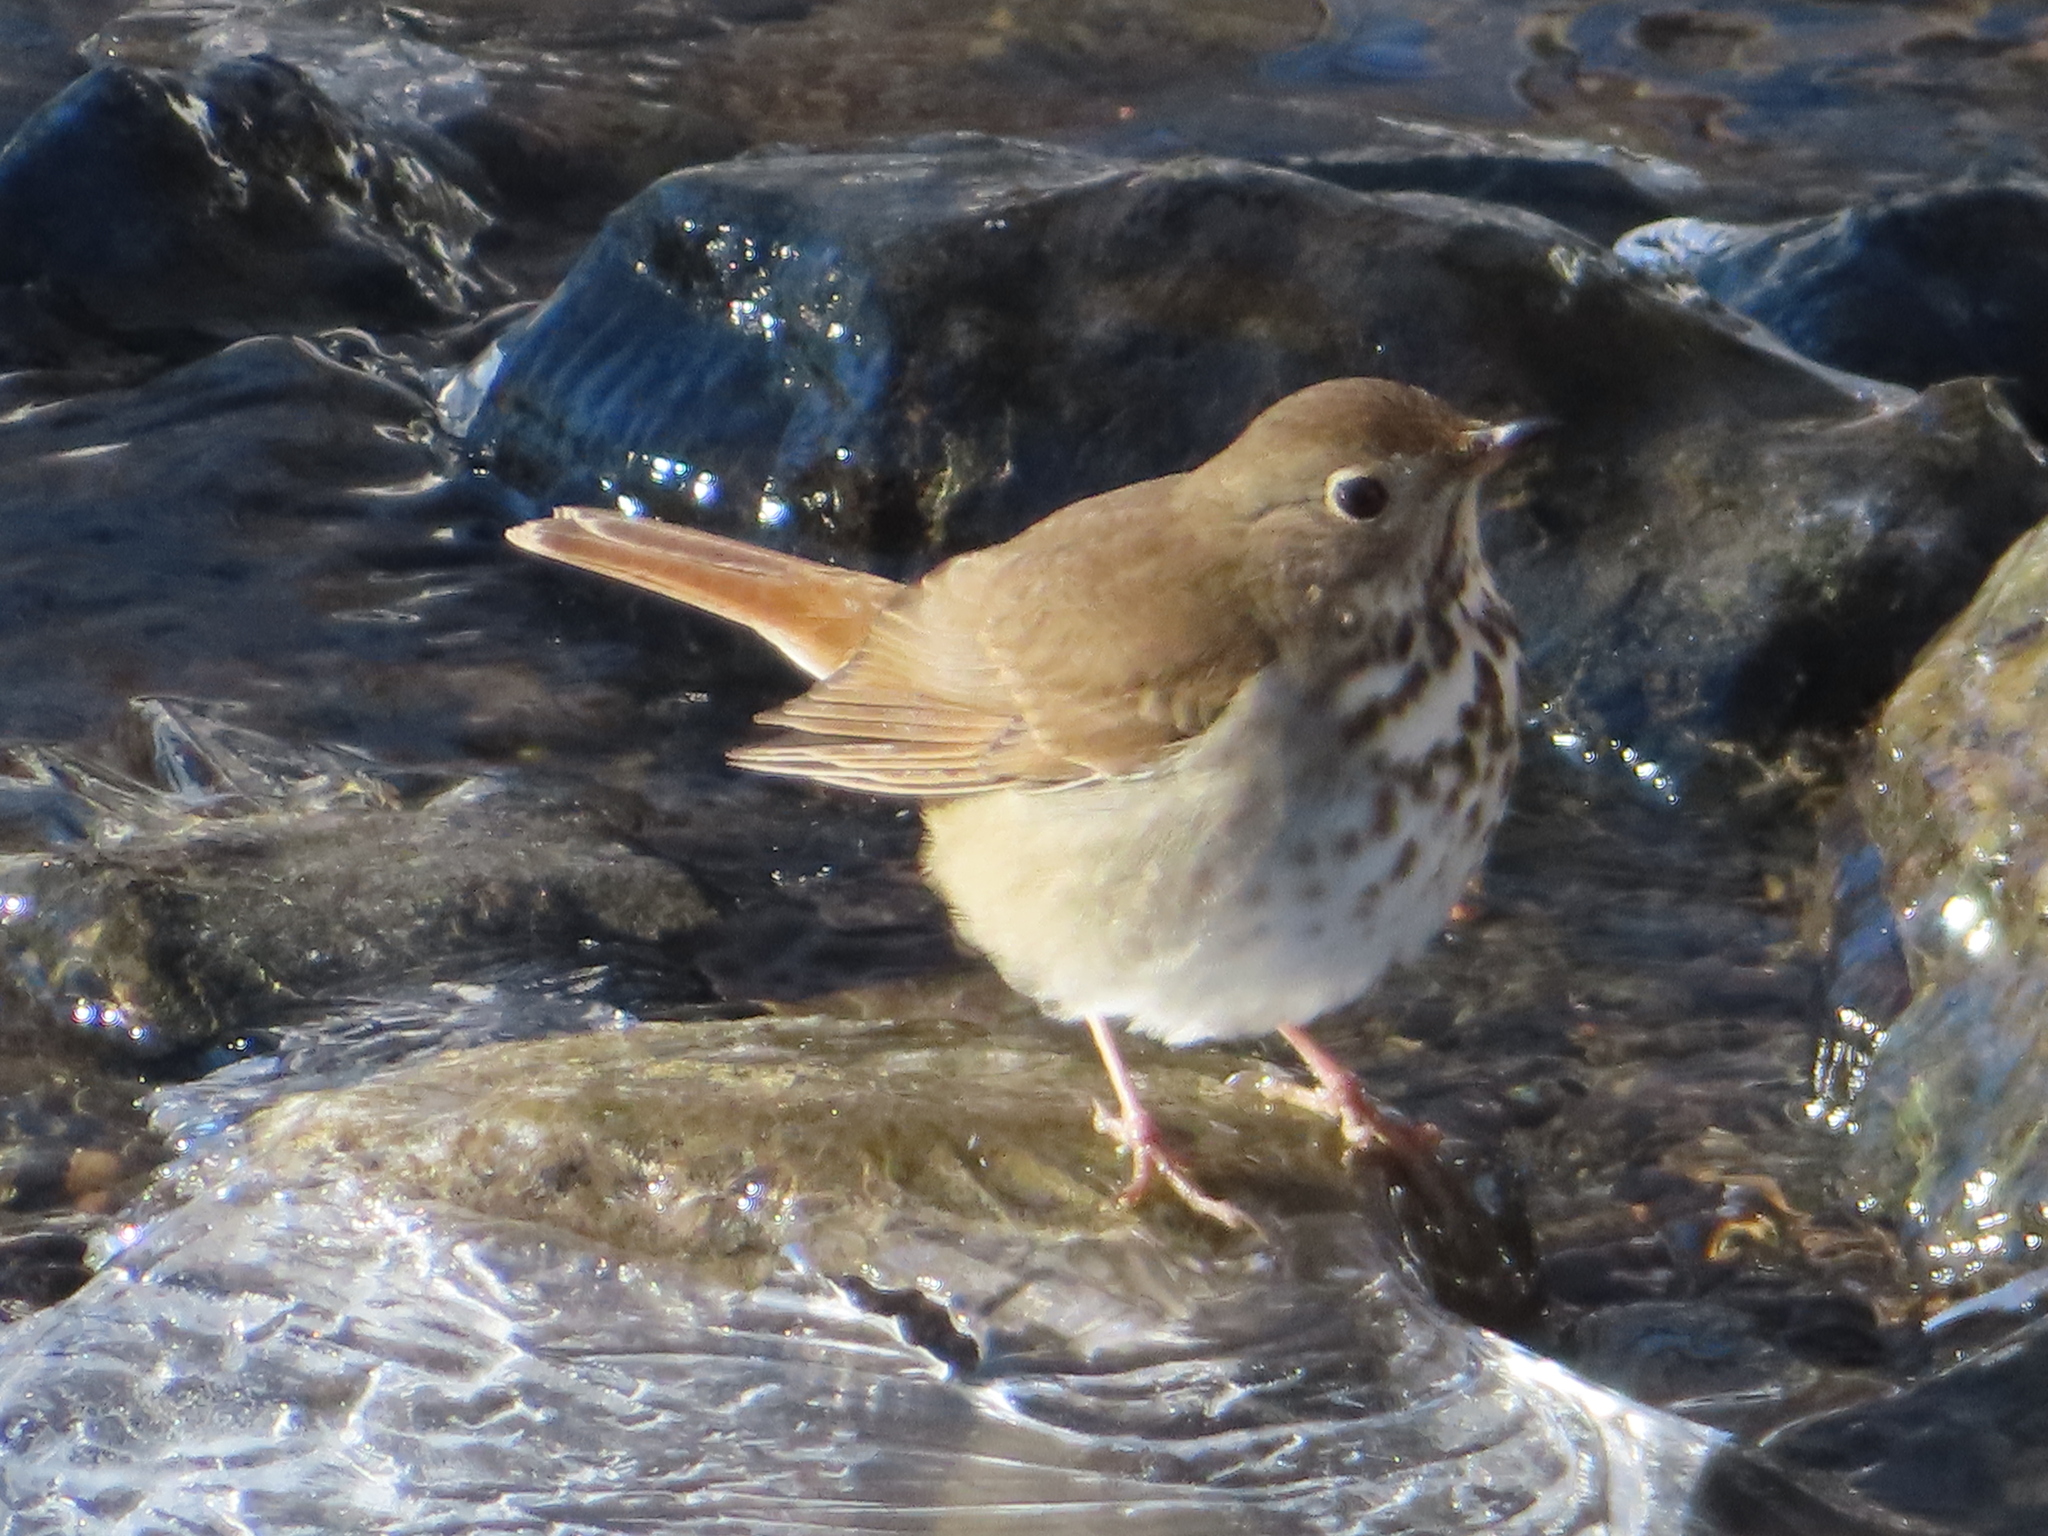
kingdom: Animalia
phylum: Chordata
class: Aves
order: Passeriformes
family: Turdidae
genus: Catharus
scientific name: Catharus guttatus
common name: Hermit thrush
